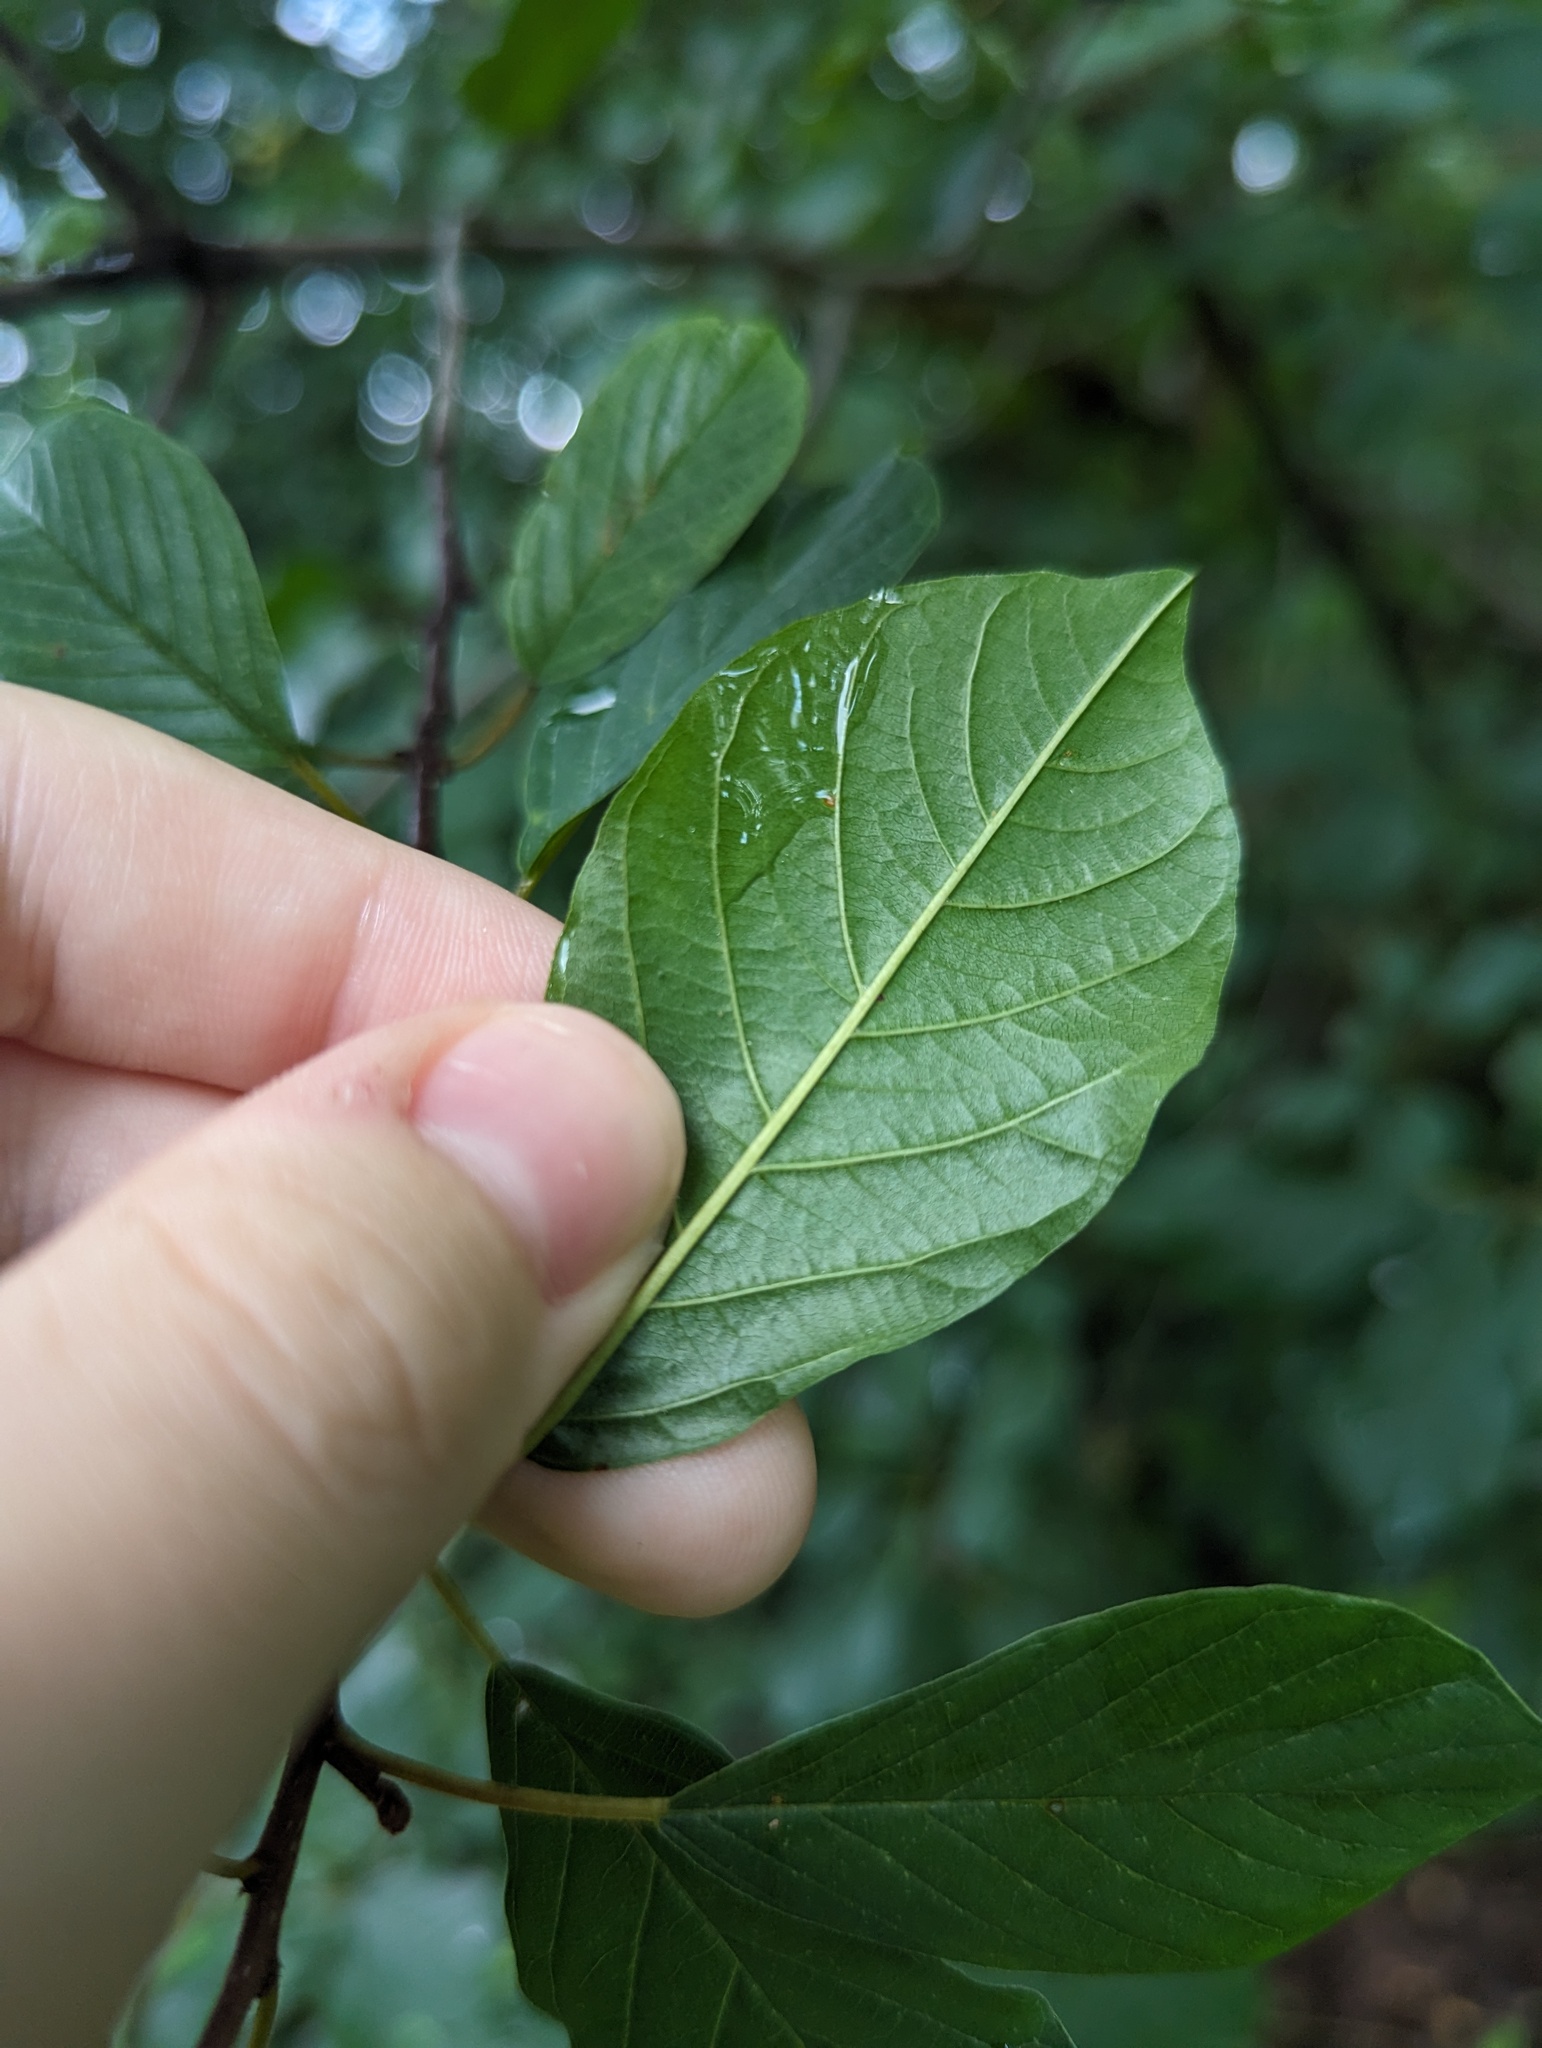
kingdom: Plantae
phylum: Tracheophyta
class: Magnoliopsida
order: Rosales
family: Rhamnaceae
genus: Frangula
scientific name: Frangula alnus
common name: Alder buckthorn
